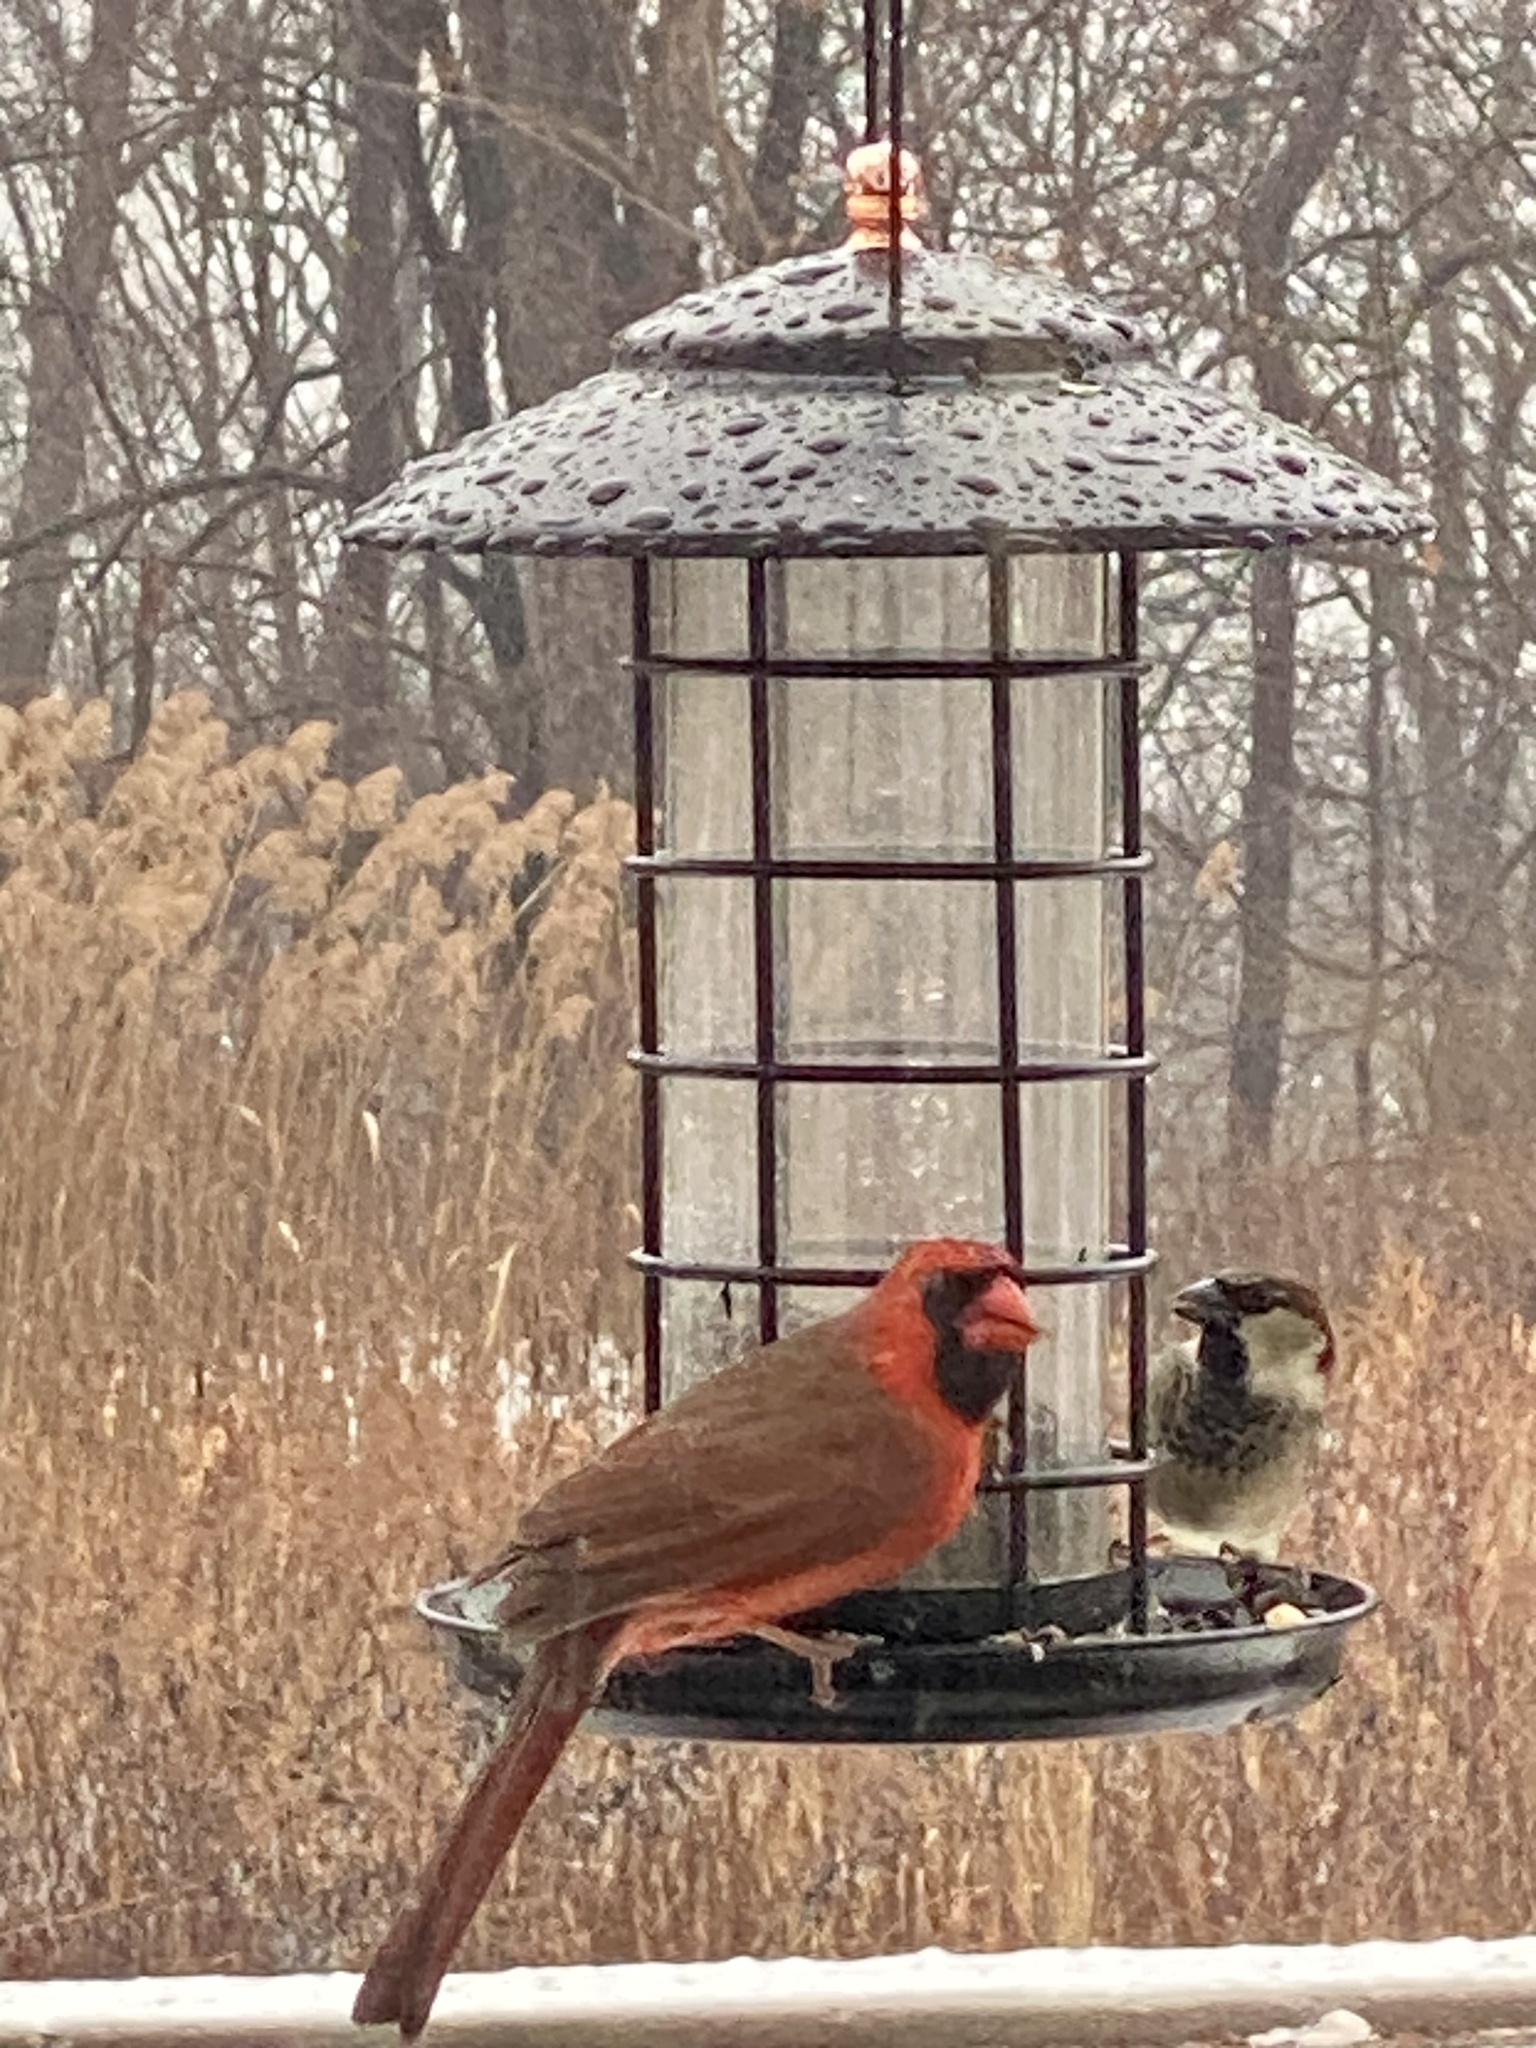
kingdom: Animalia
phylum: Chordata
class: Aves
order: Passeriformes
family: Cardinalidae
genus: Cardinalis
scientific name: Cardinalis cardinalis
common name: Northern cardinal
